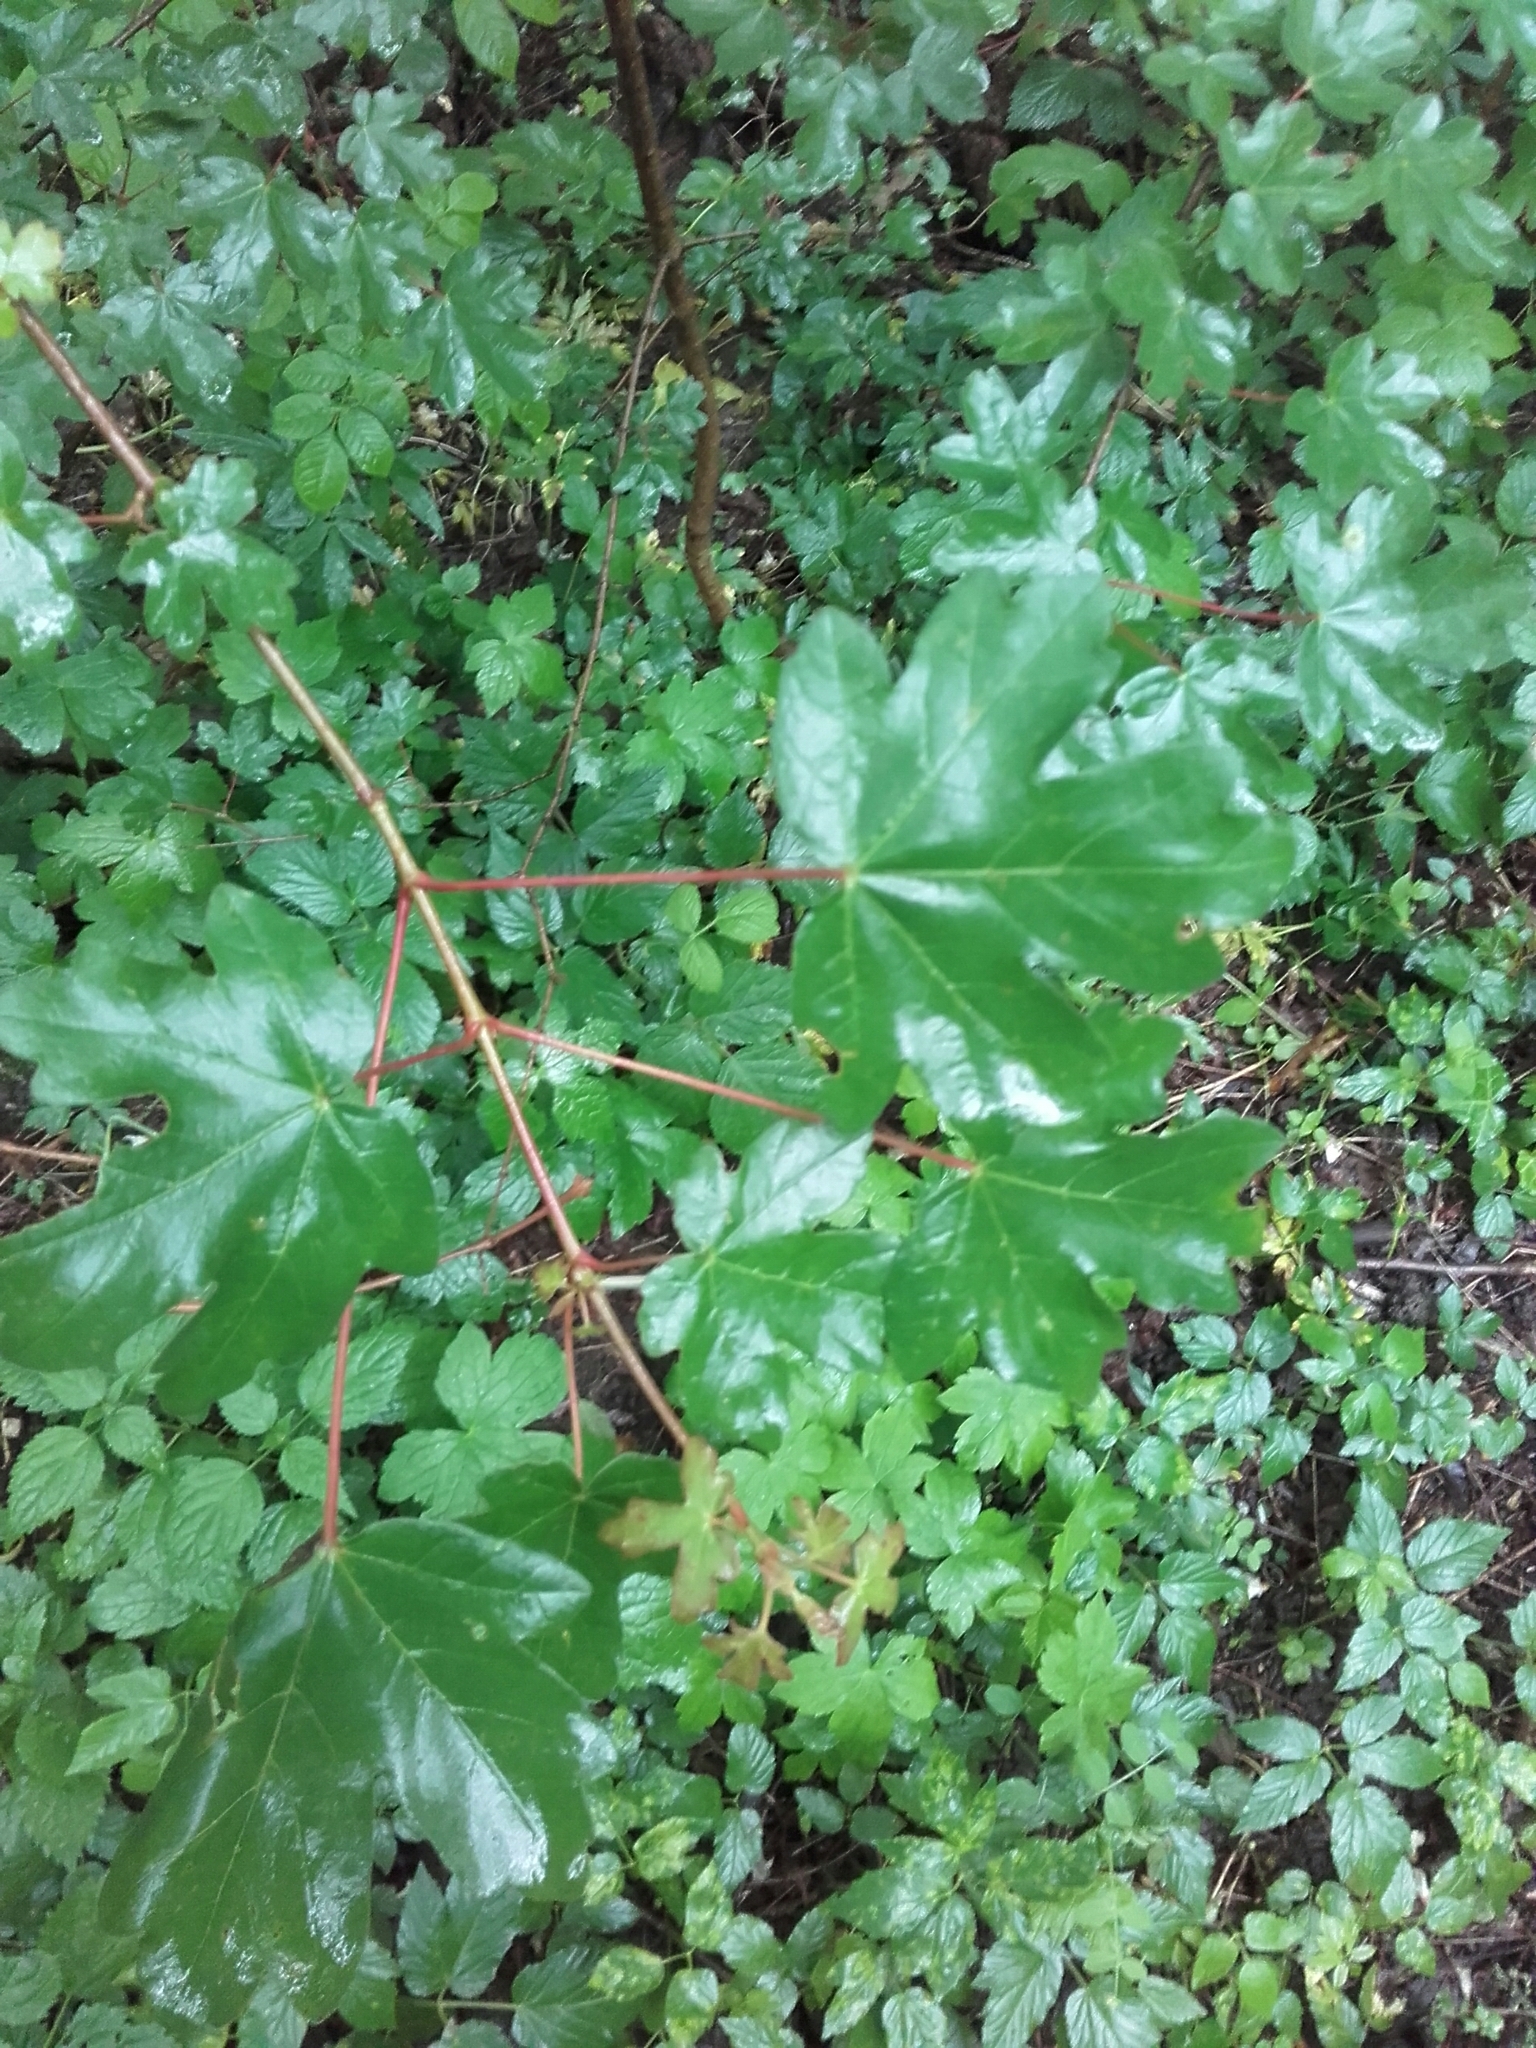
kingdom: Plantae
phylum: Tracheophyta
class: Magnoliopsida
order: Sapindales
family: Sapindaceae
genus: Acer
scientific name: Acer campestre
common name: Field maple
